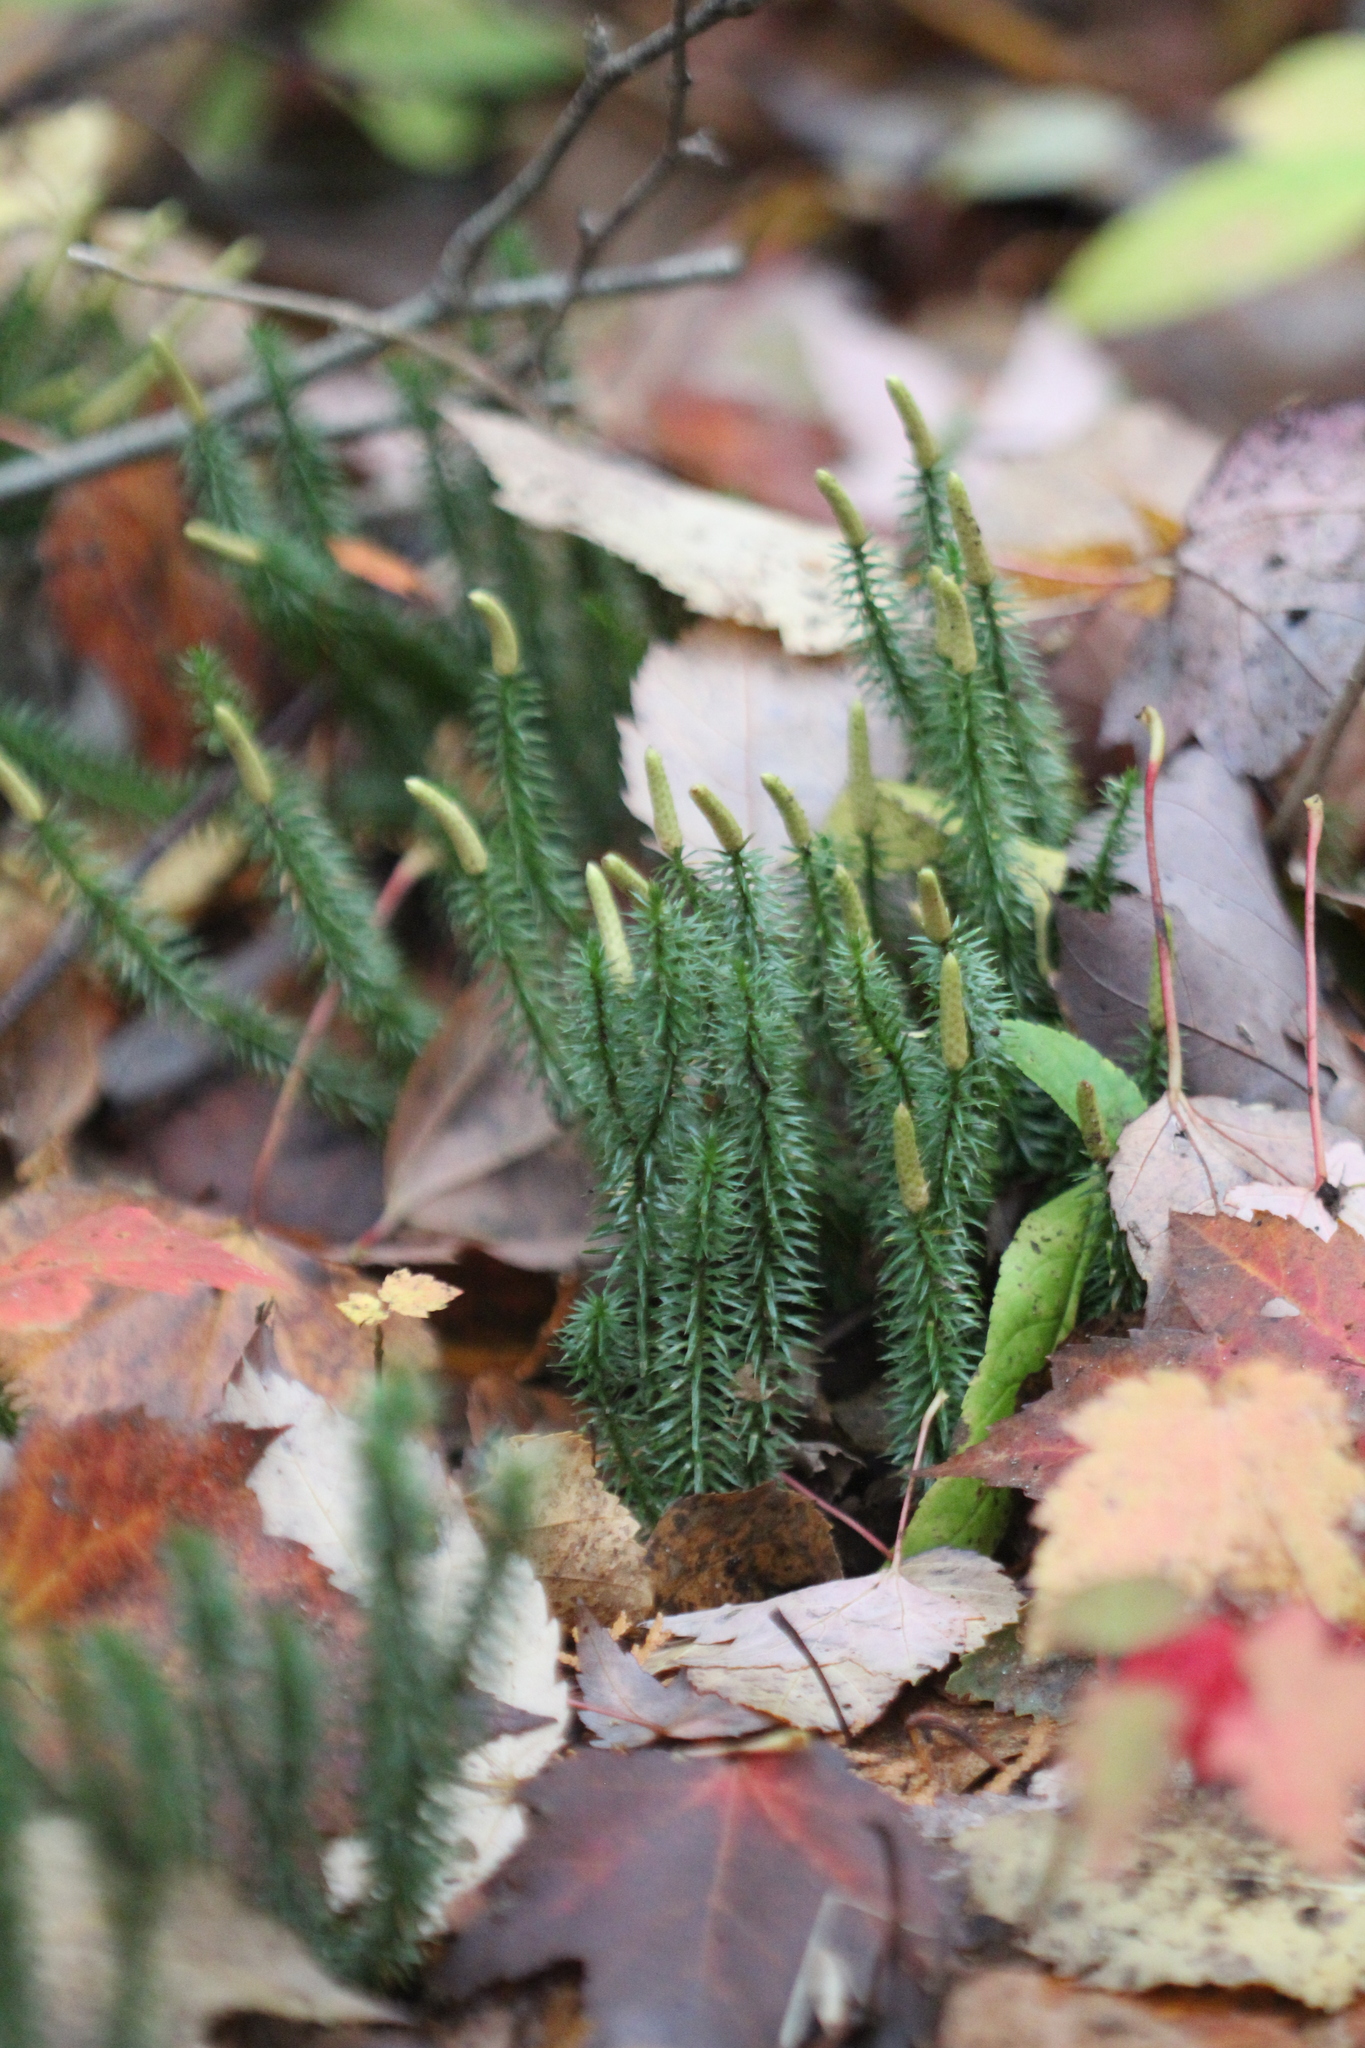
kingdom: Plantae
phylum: Tracheophyta
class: Lycopodiopsida
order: Lycopodiales
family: Lycopodiaceae
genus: Spinulum
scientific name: Spinulum annotinum
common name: Interrupted club-moss
